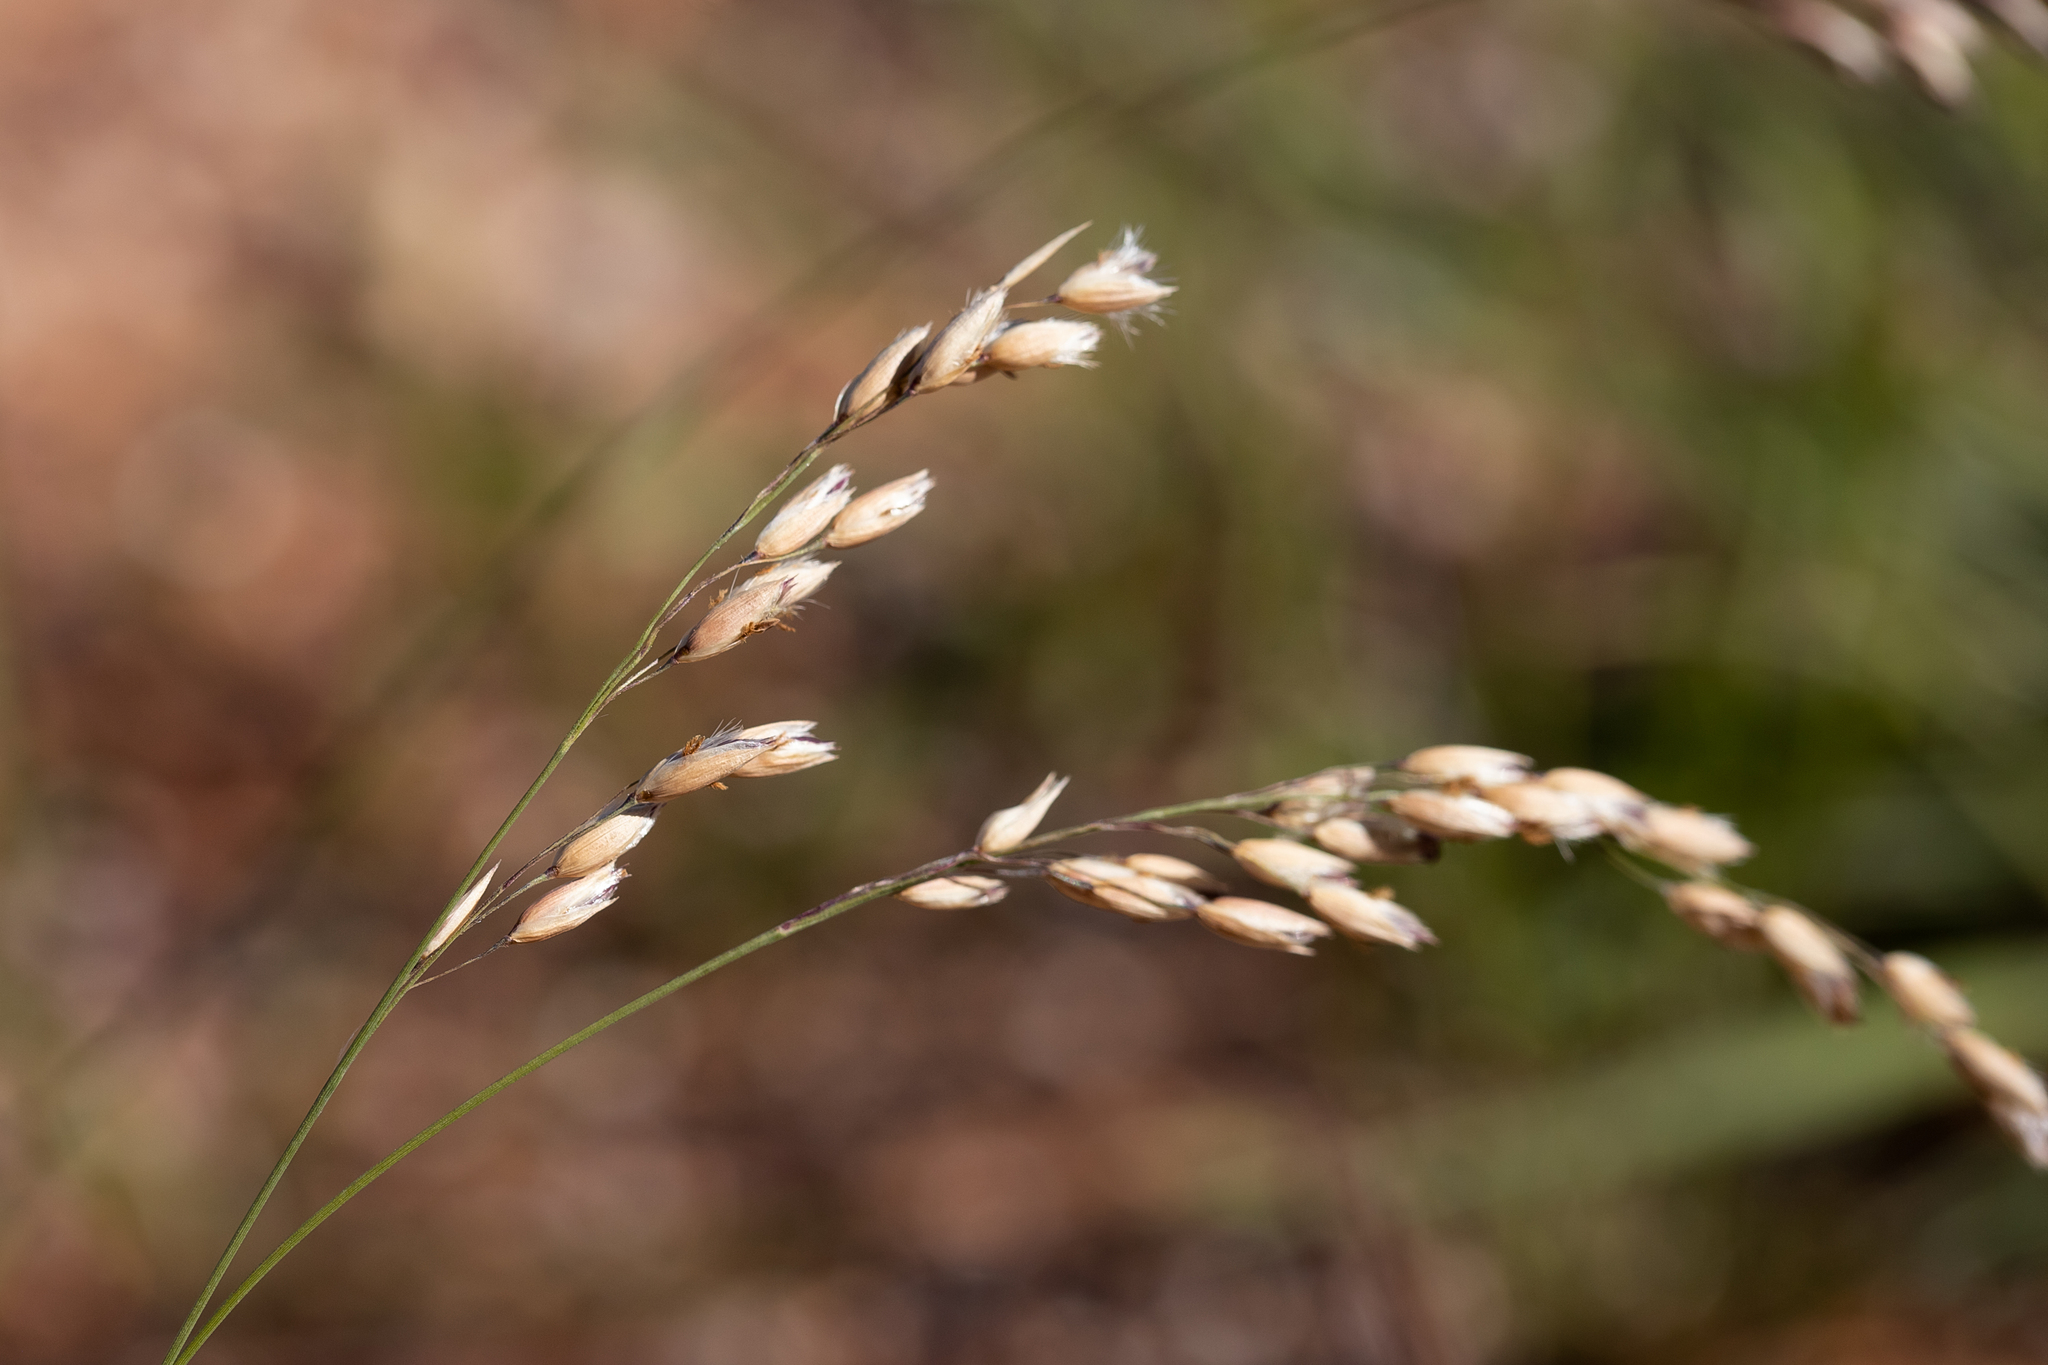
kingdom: Plantae
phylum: Tracheophyta
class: Liliopsida
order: Poales
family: Poaceae
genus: Eriachne
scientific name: Eriachne mucronata
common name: Mountain wanderrie grass
